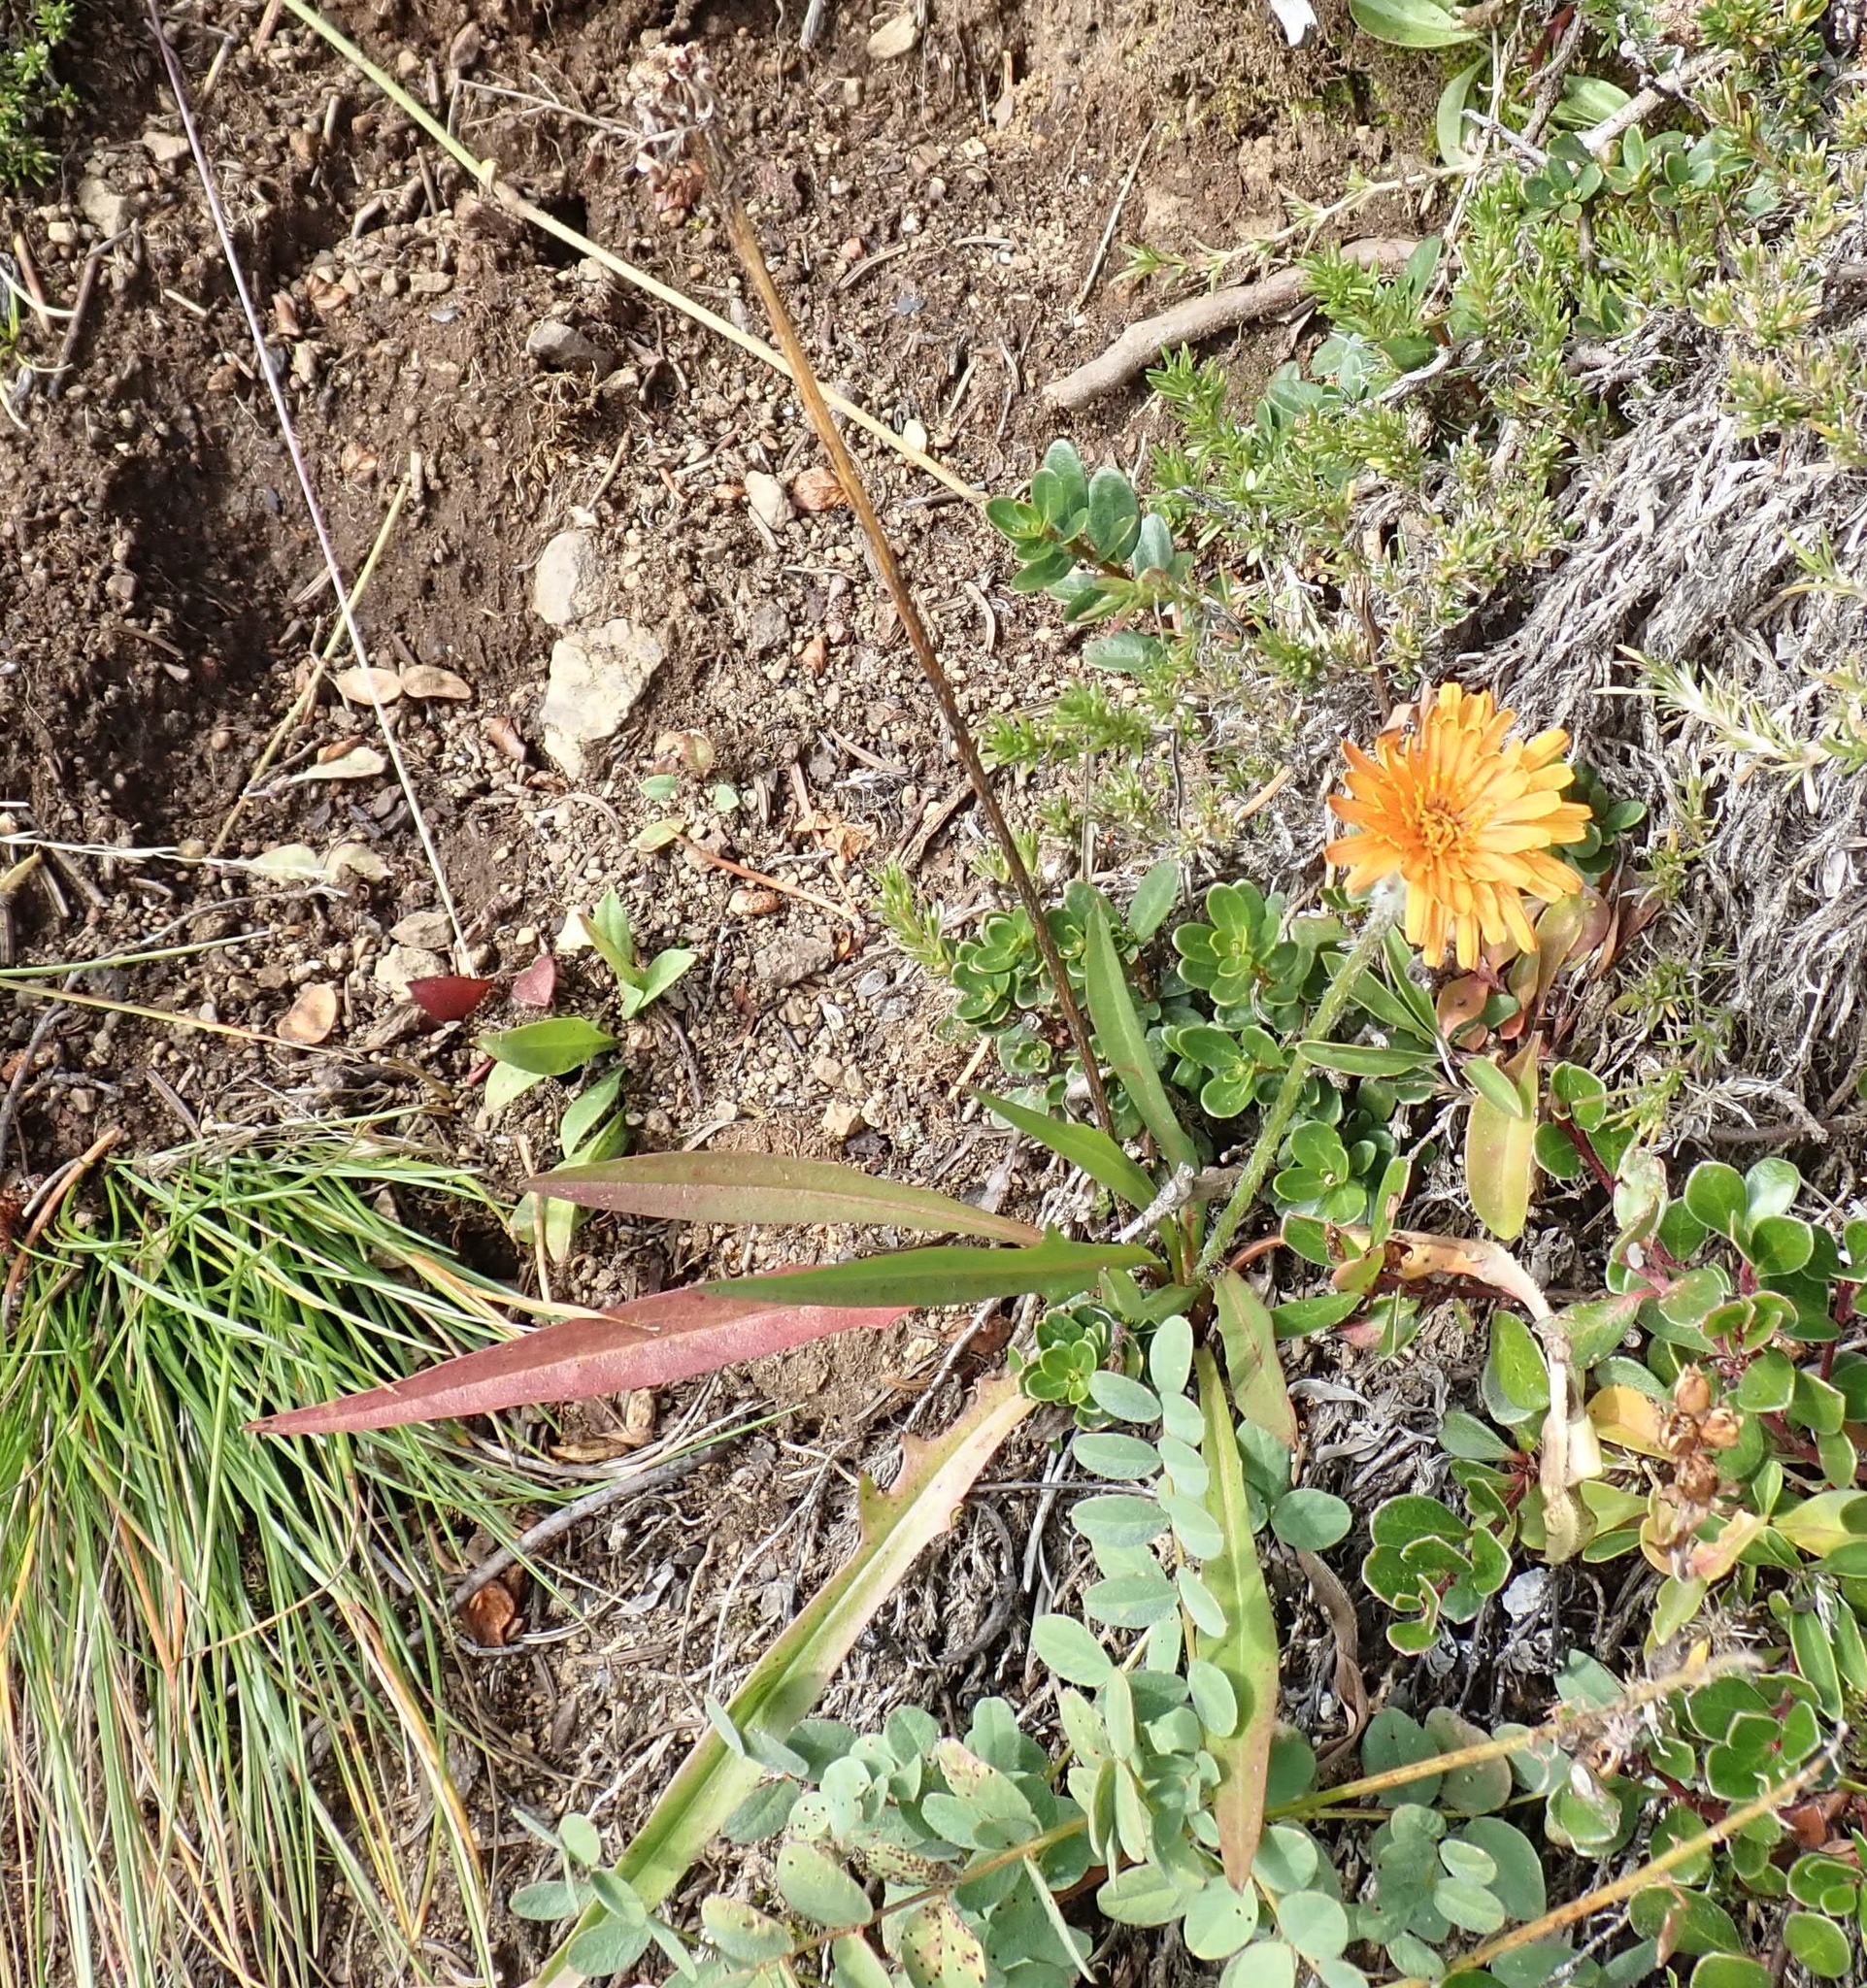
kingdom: Plantae
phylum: Tracheophyta
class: Magnoliopsida
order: Asterales
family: Asteraceae
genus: Agoseris
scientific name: Agoseris aurantiaca
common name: Mountain agoseris
